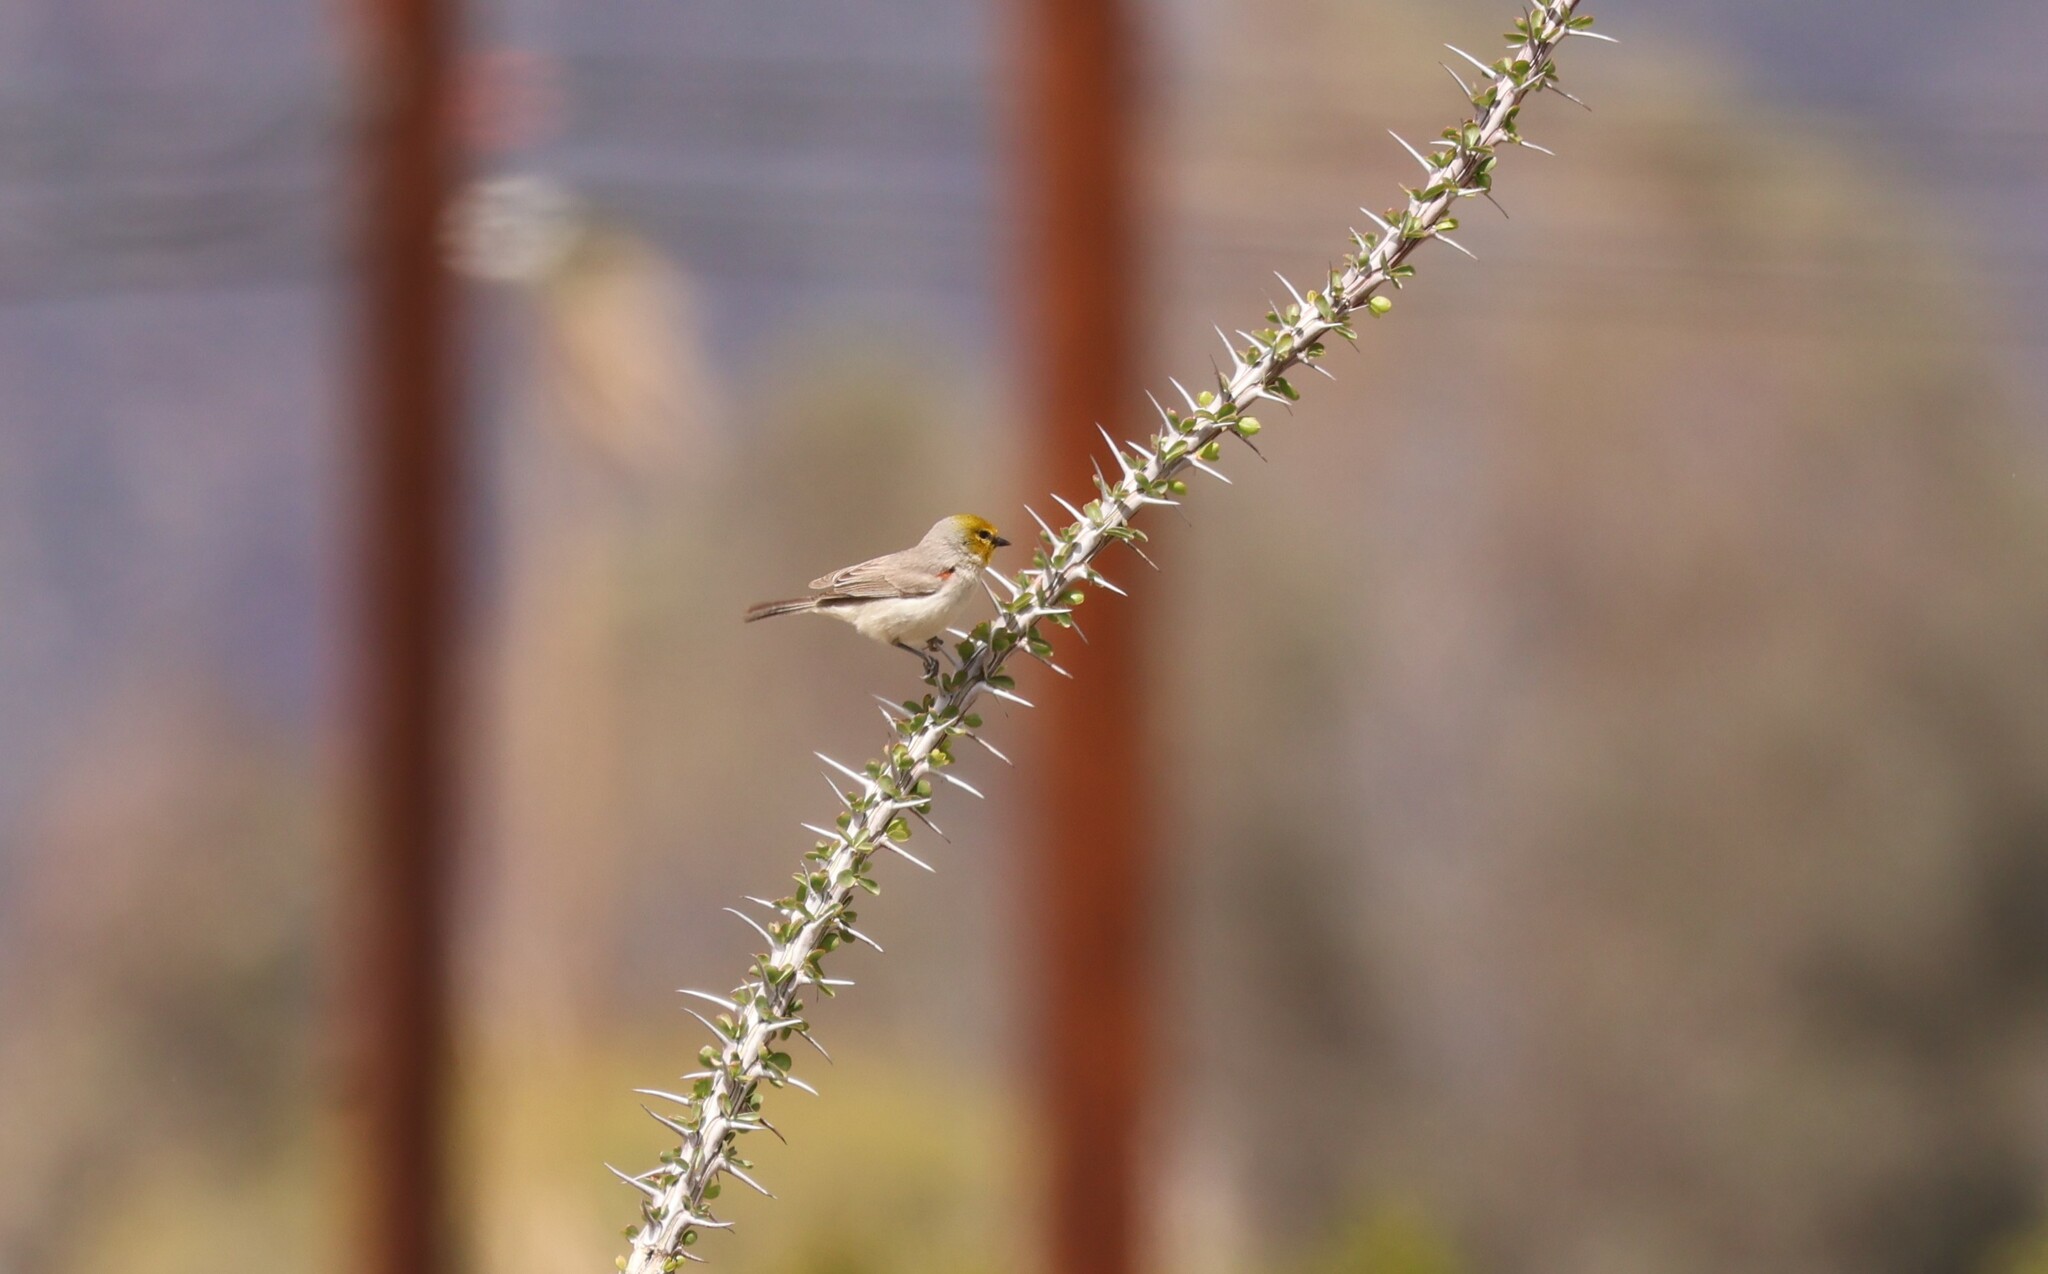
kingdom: Animalia
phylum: Chordata
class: Aves
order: Passeriformes
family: Remizidae
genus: Auriparus
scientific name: Auriparus flaviceps
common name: Verdin
